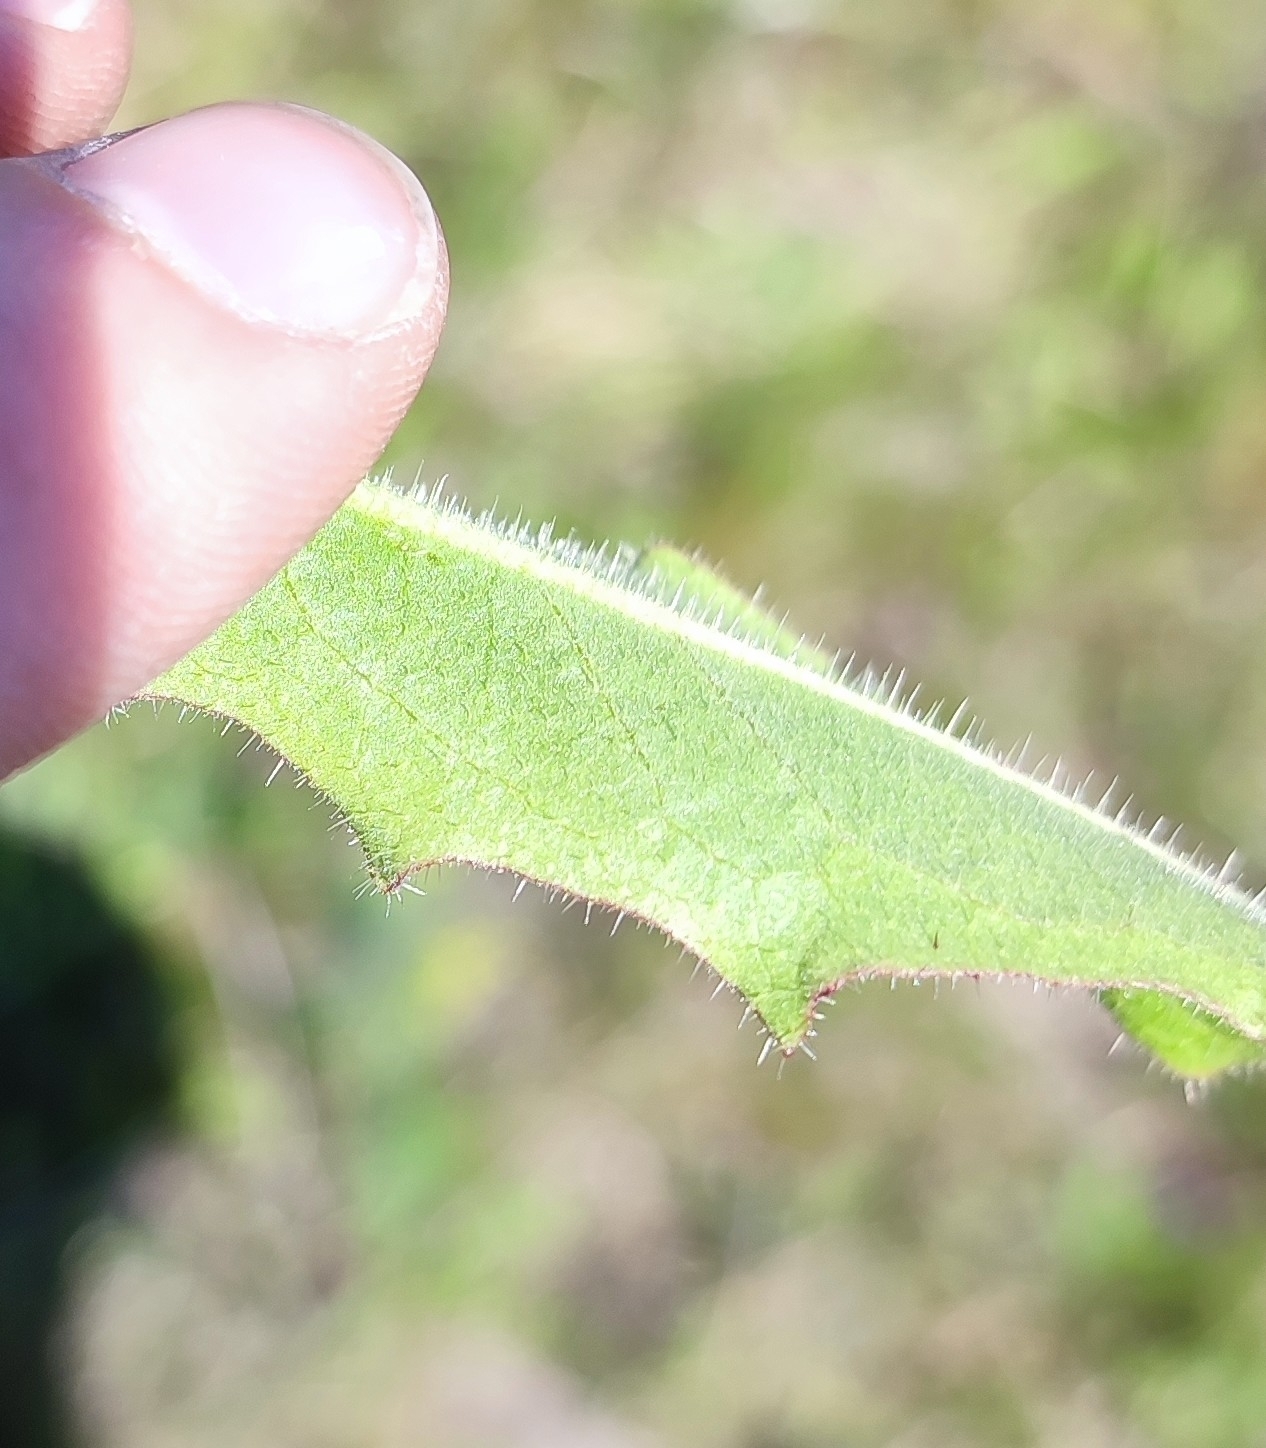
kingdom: Plantae
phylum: Tracheophyta
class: Magnoliopsida
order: Asterales
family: Asteraceae
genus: Picris
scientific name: Picris hieracioides
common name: Hawkweed oxtongue
